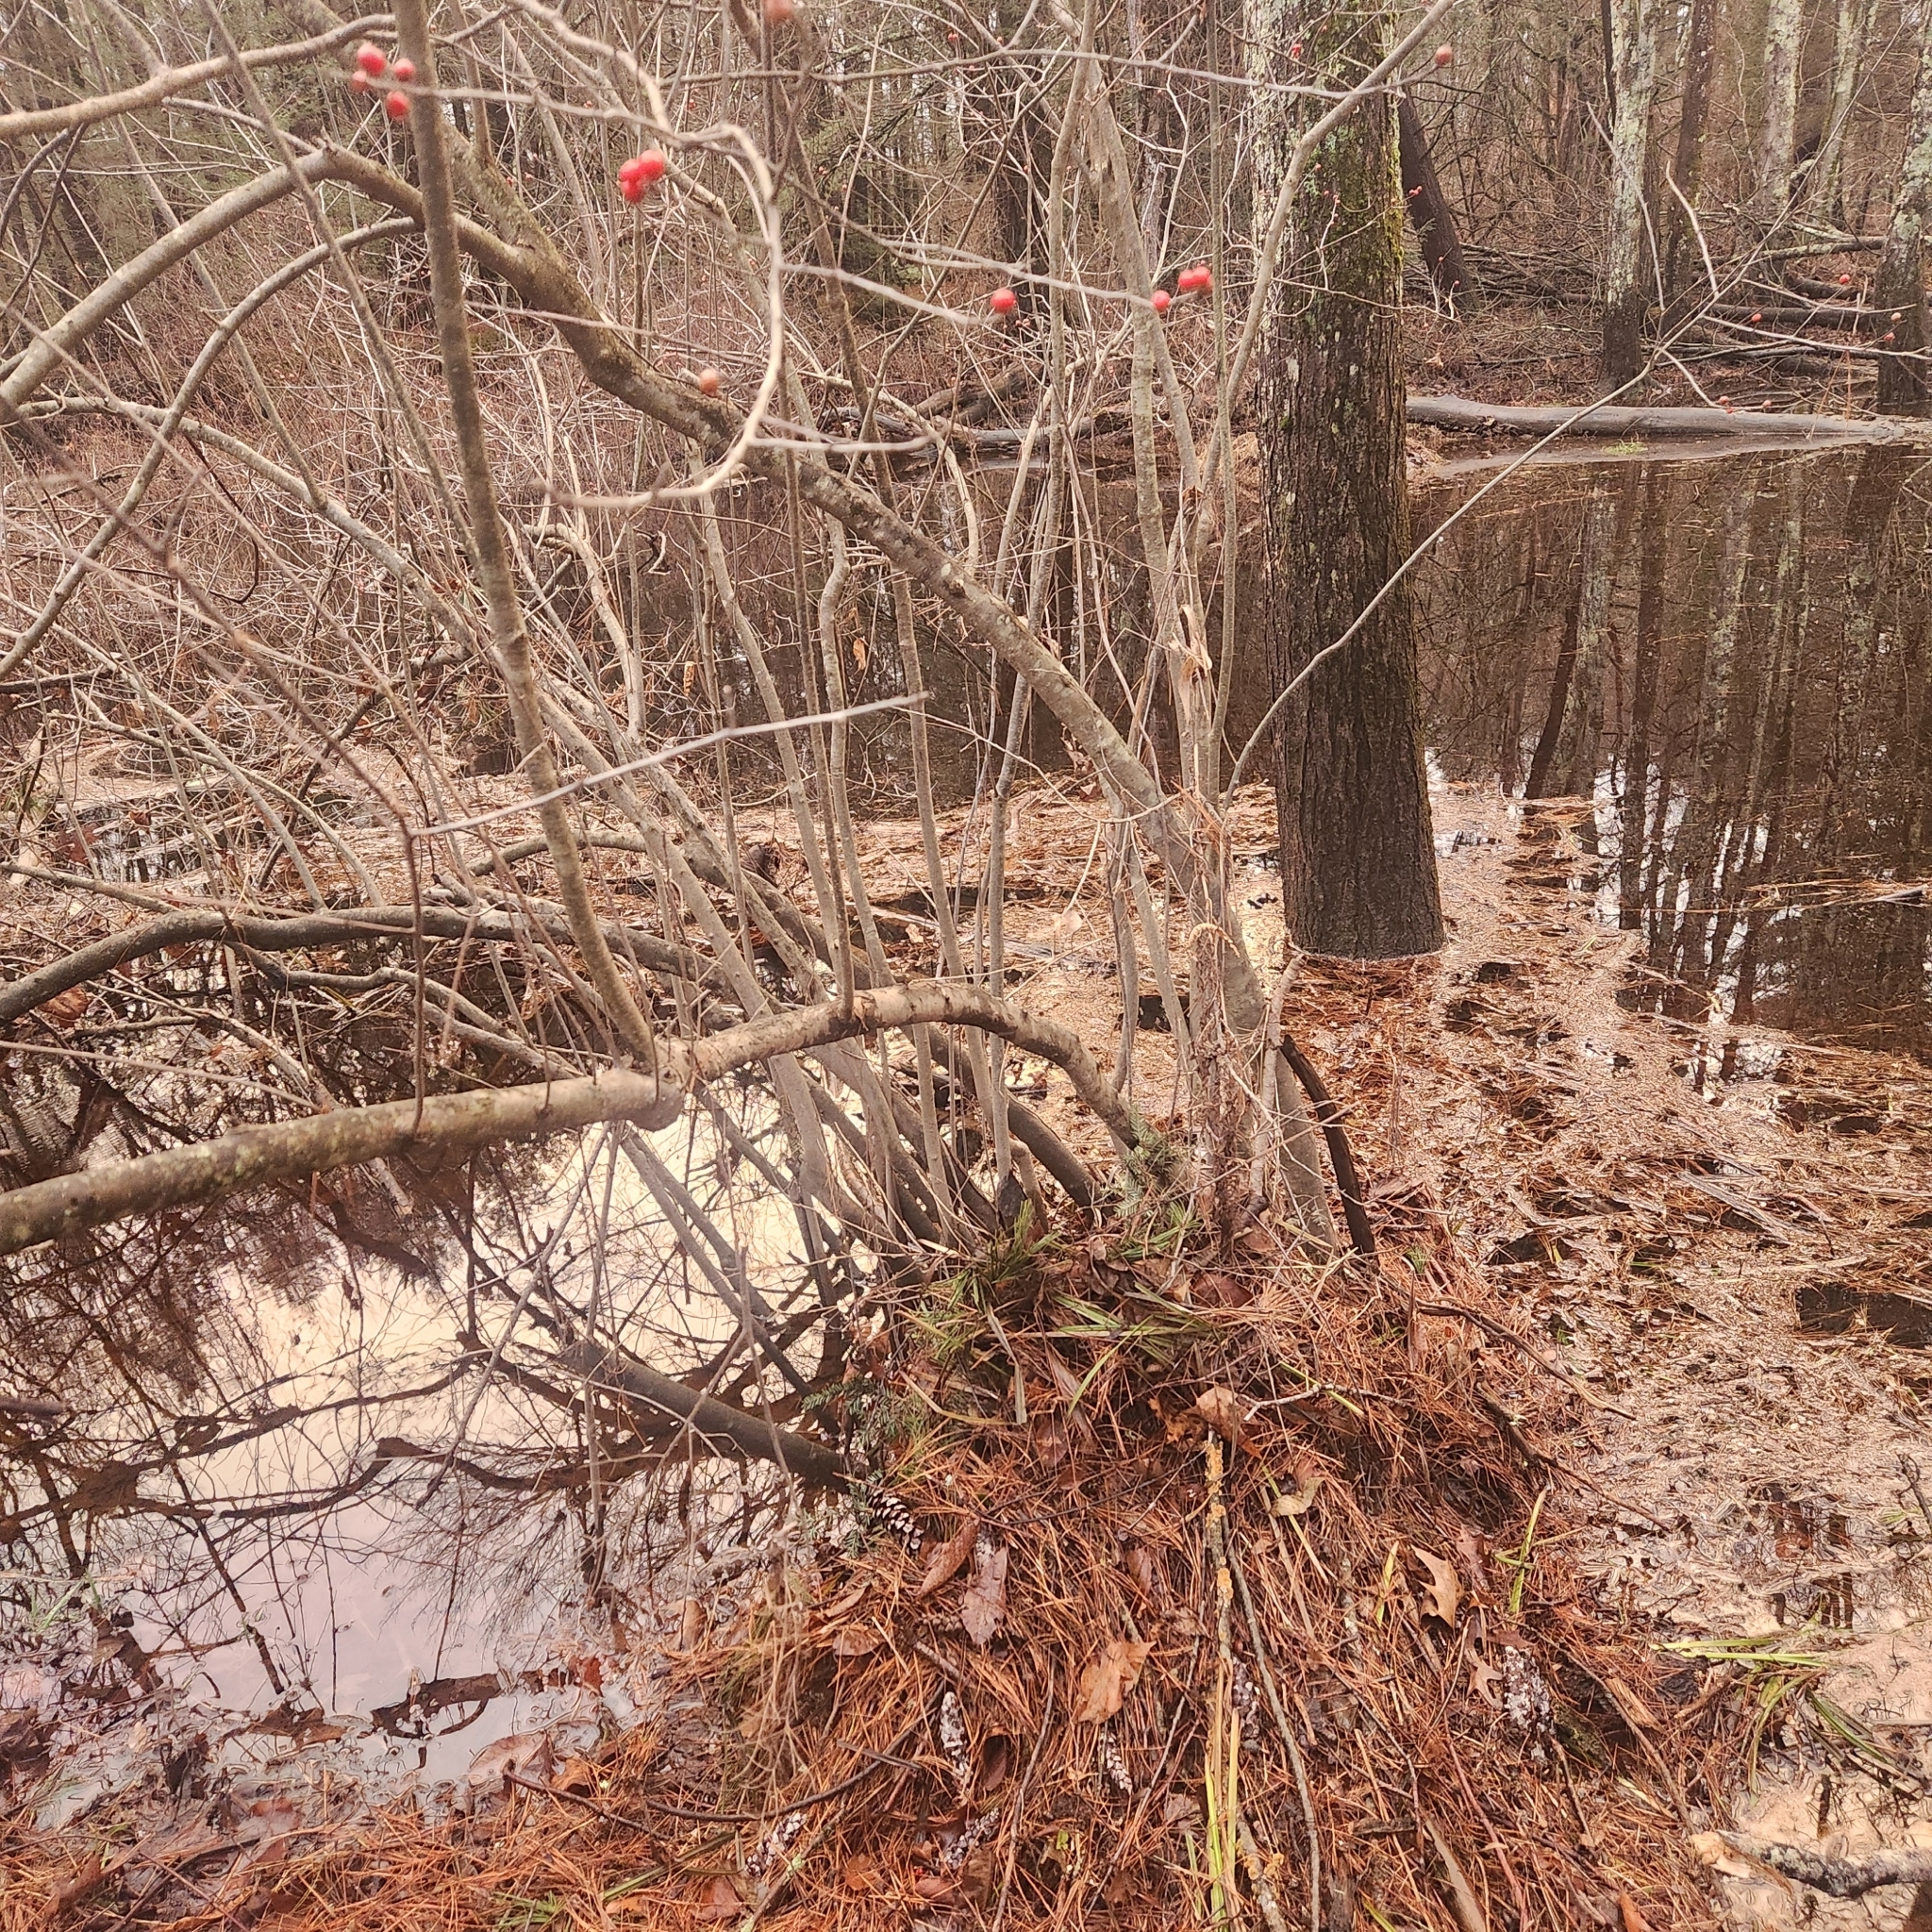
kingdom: Plantae
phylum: Tracheophyta
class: Magnoliopsida
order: Aquifoliales
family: Aquifoliaceae
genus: Ilex
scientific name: Ilex verticillata
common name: Virginia winterberry
